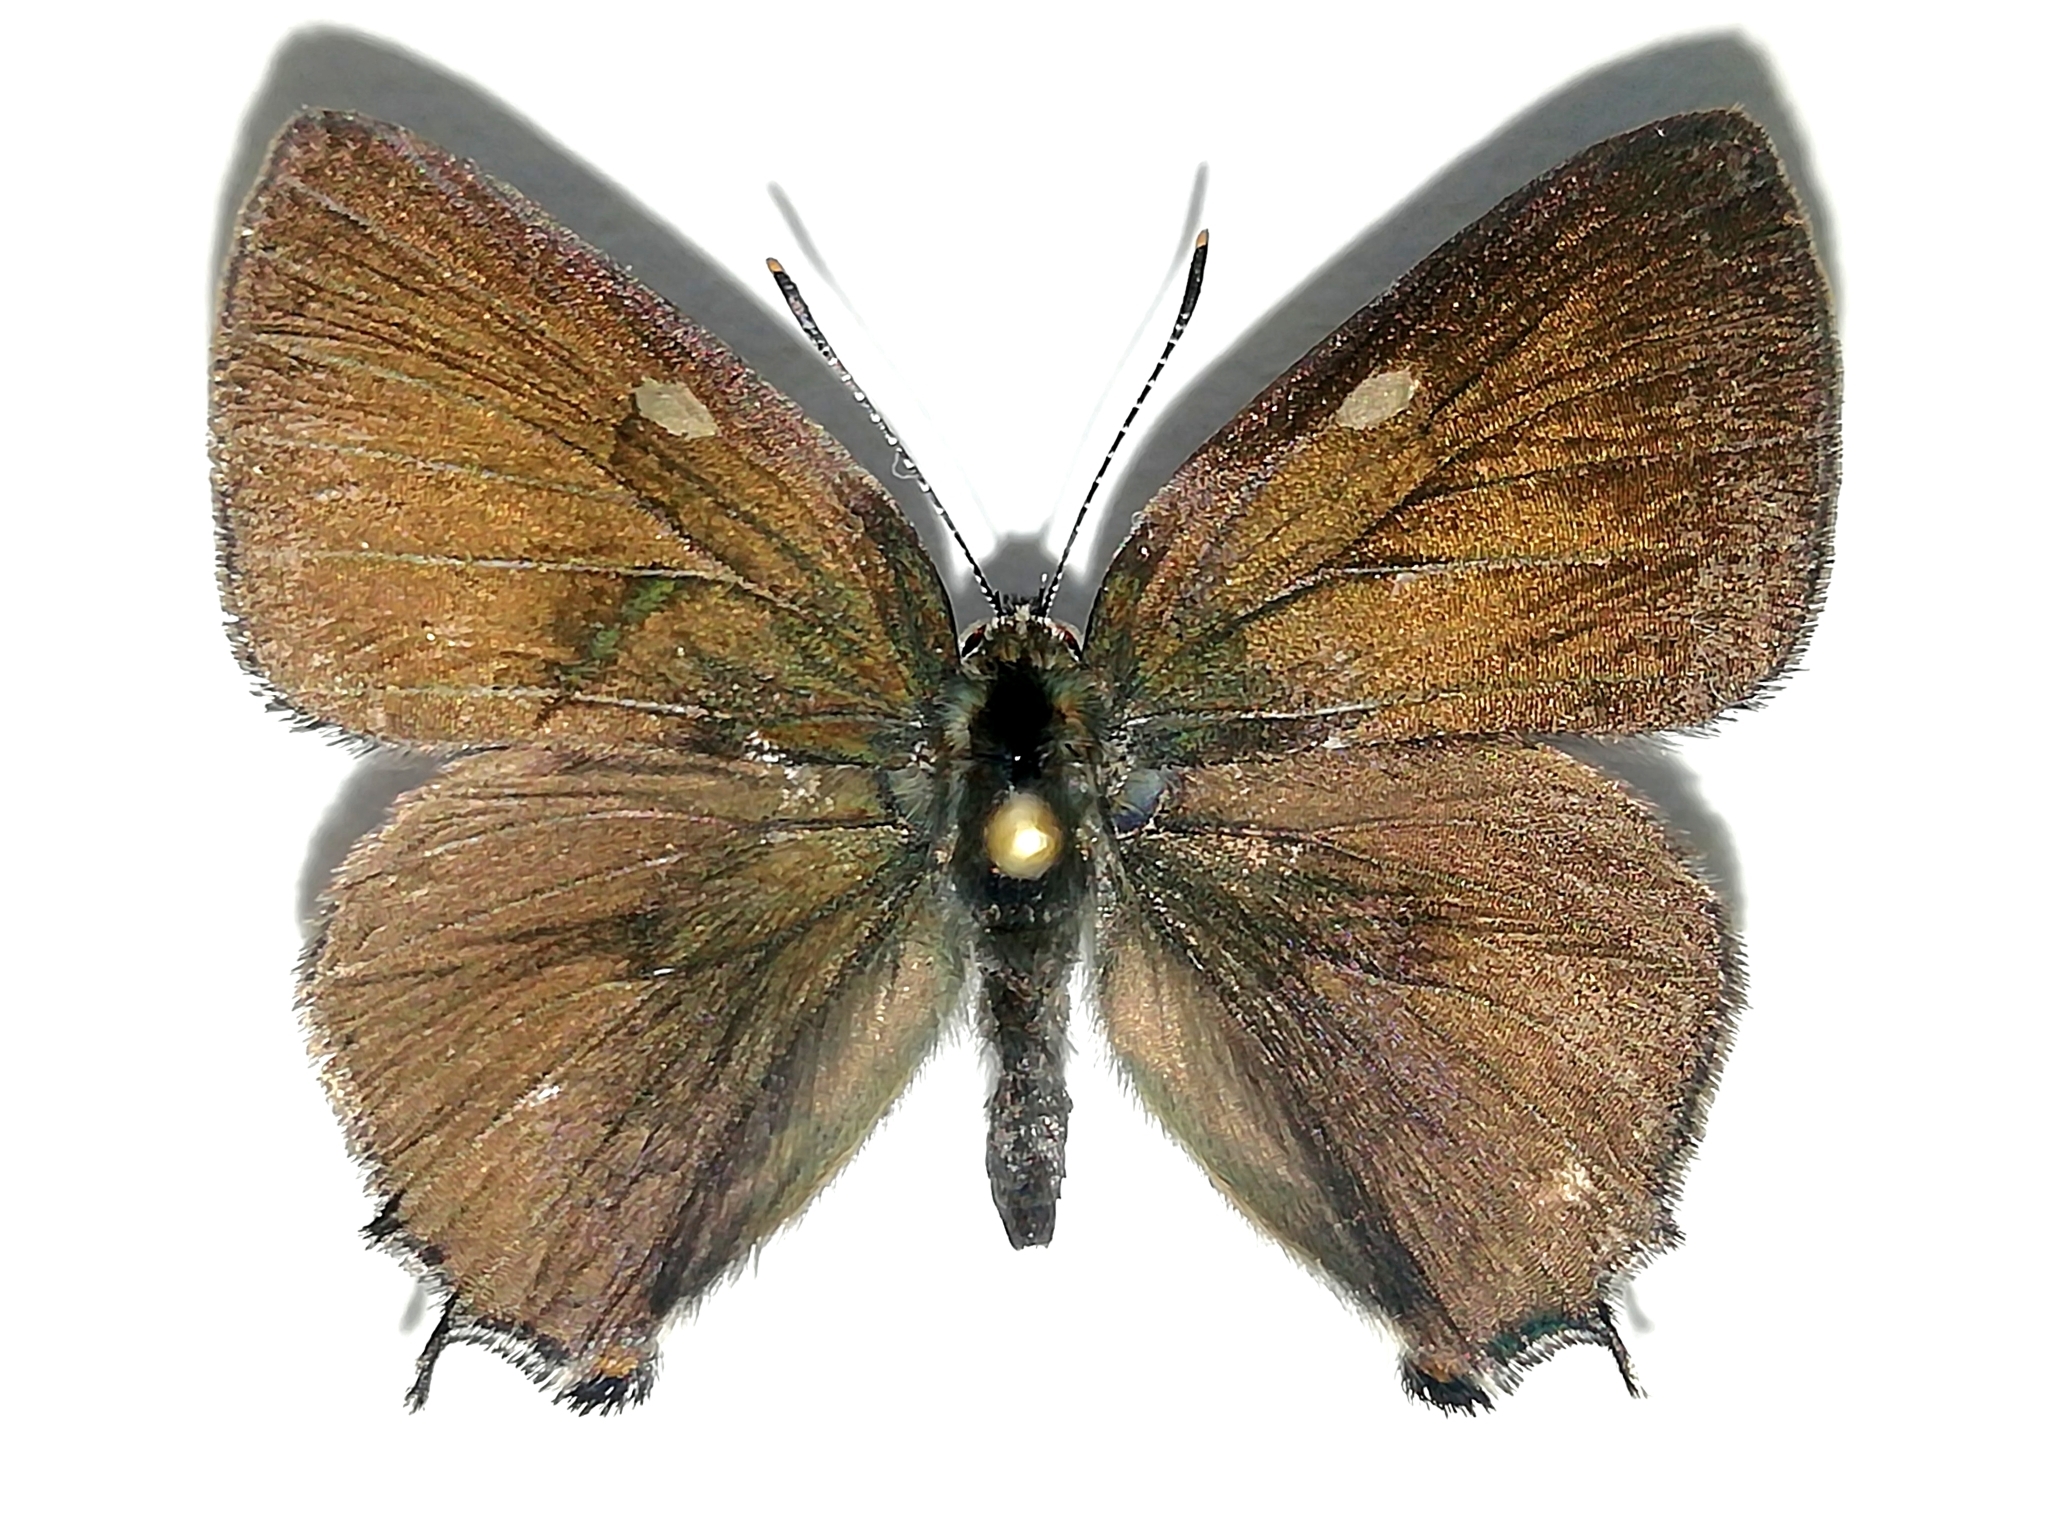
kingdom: Animalia
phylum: Arthropoda
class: Insecta
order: Lepidoptera
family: Lycaenidae
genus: Satyrium
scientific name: Satyrium w-album
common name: White-letter hairstreak
